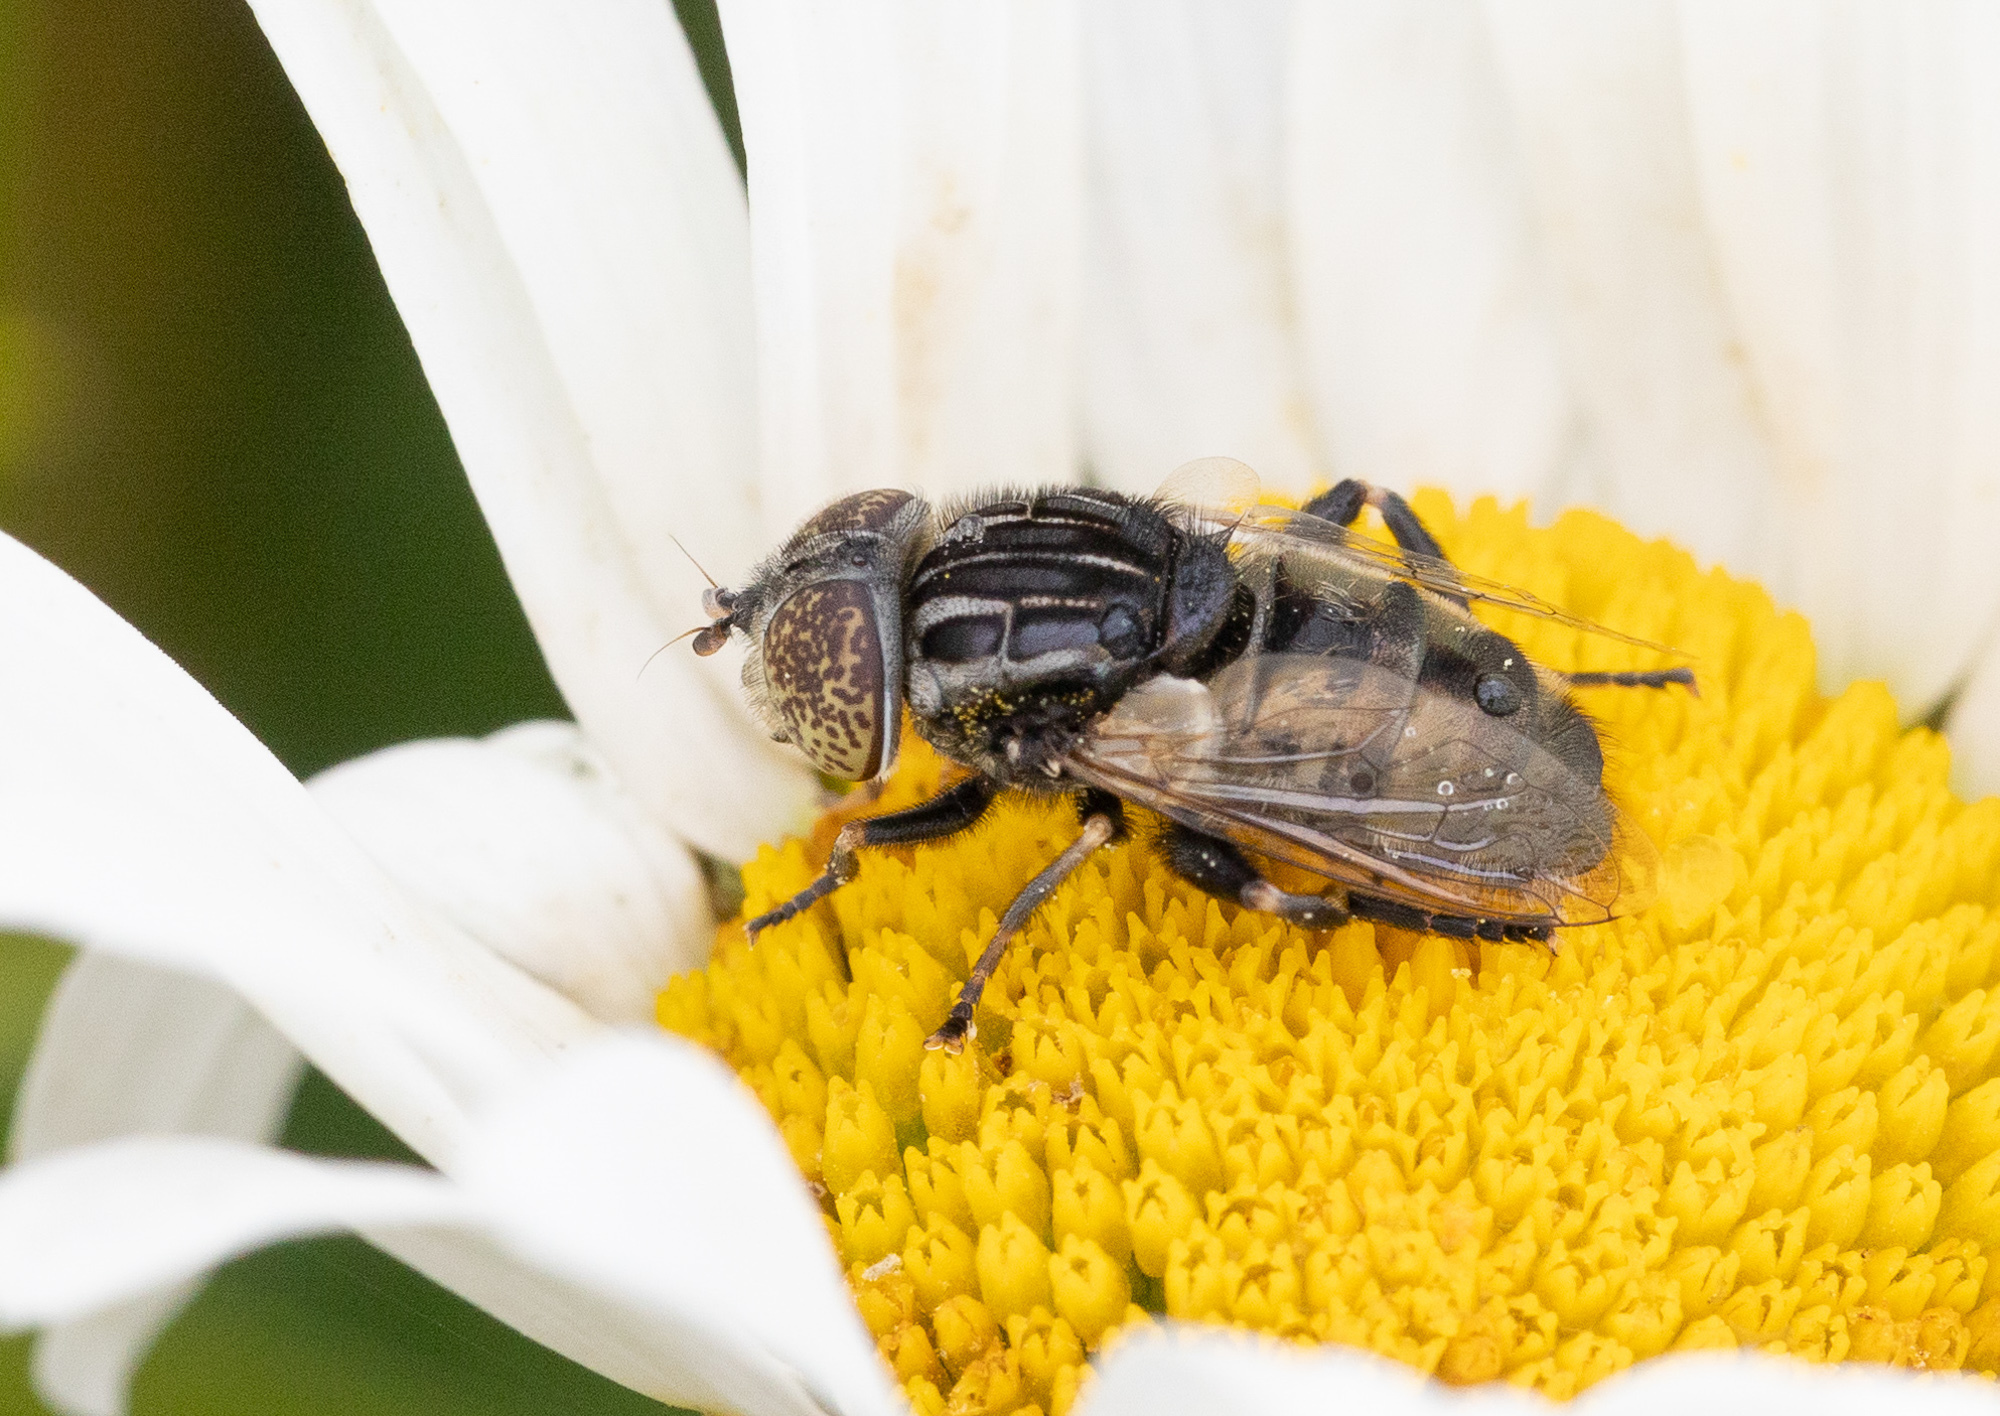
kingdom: Animalia
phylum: Arthropoda
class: Insecta
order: Diptera
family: Syrphidae
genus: Eristalinus
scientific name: Eristalinus sepulchralis
